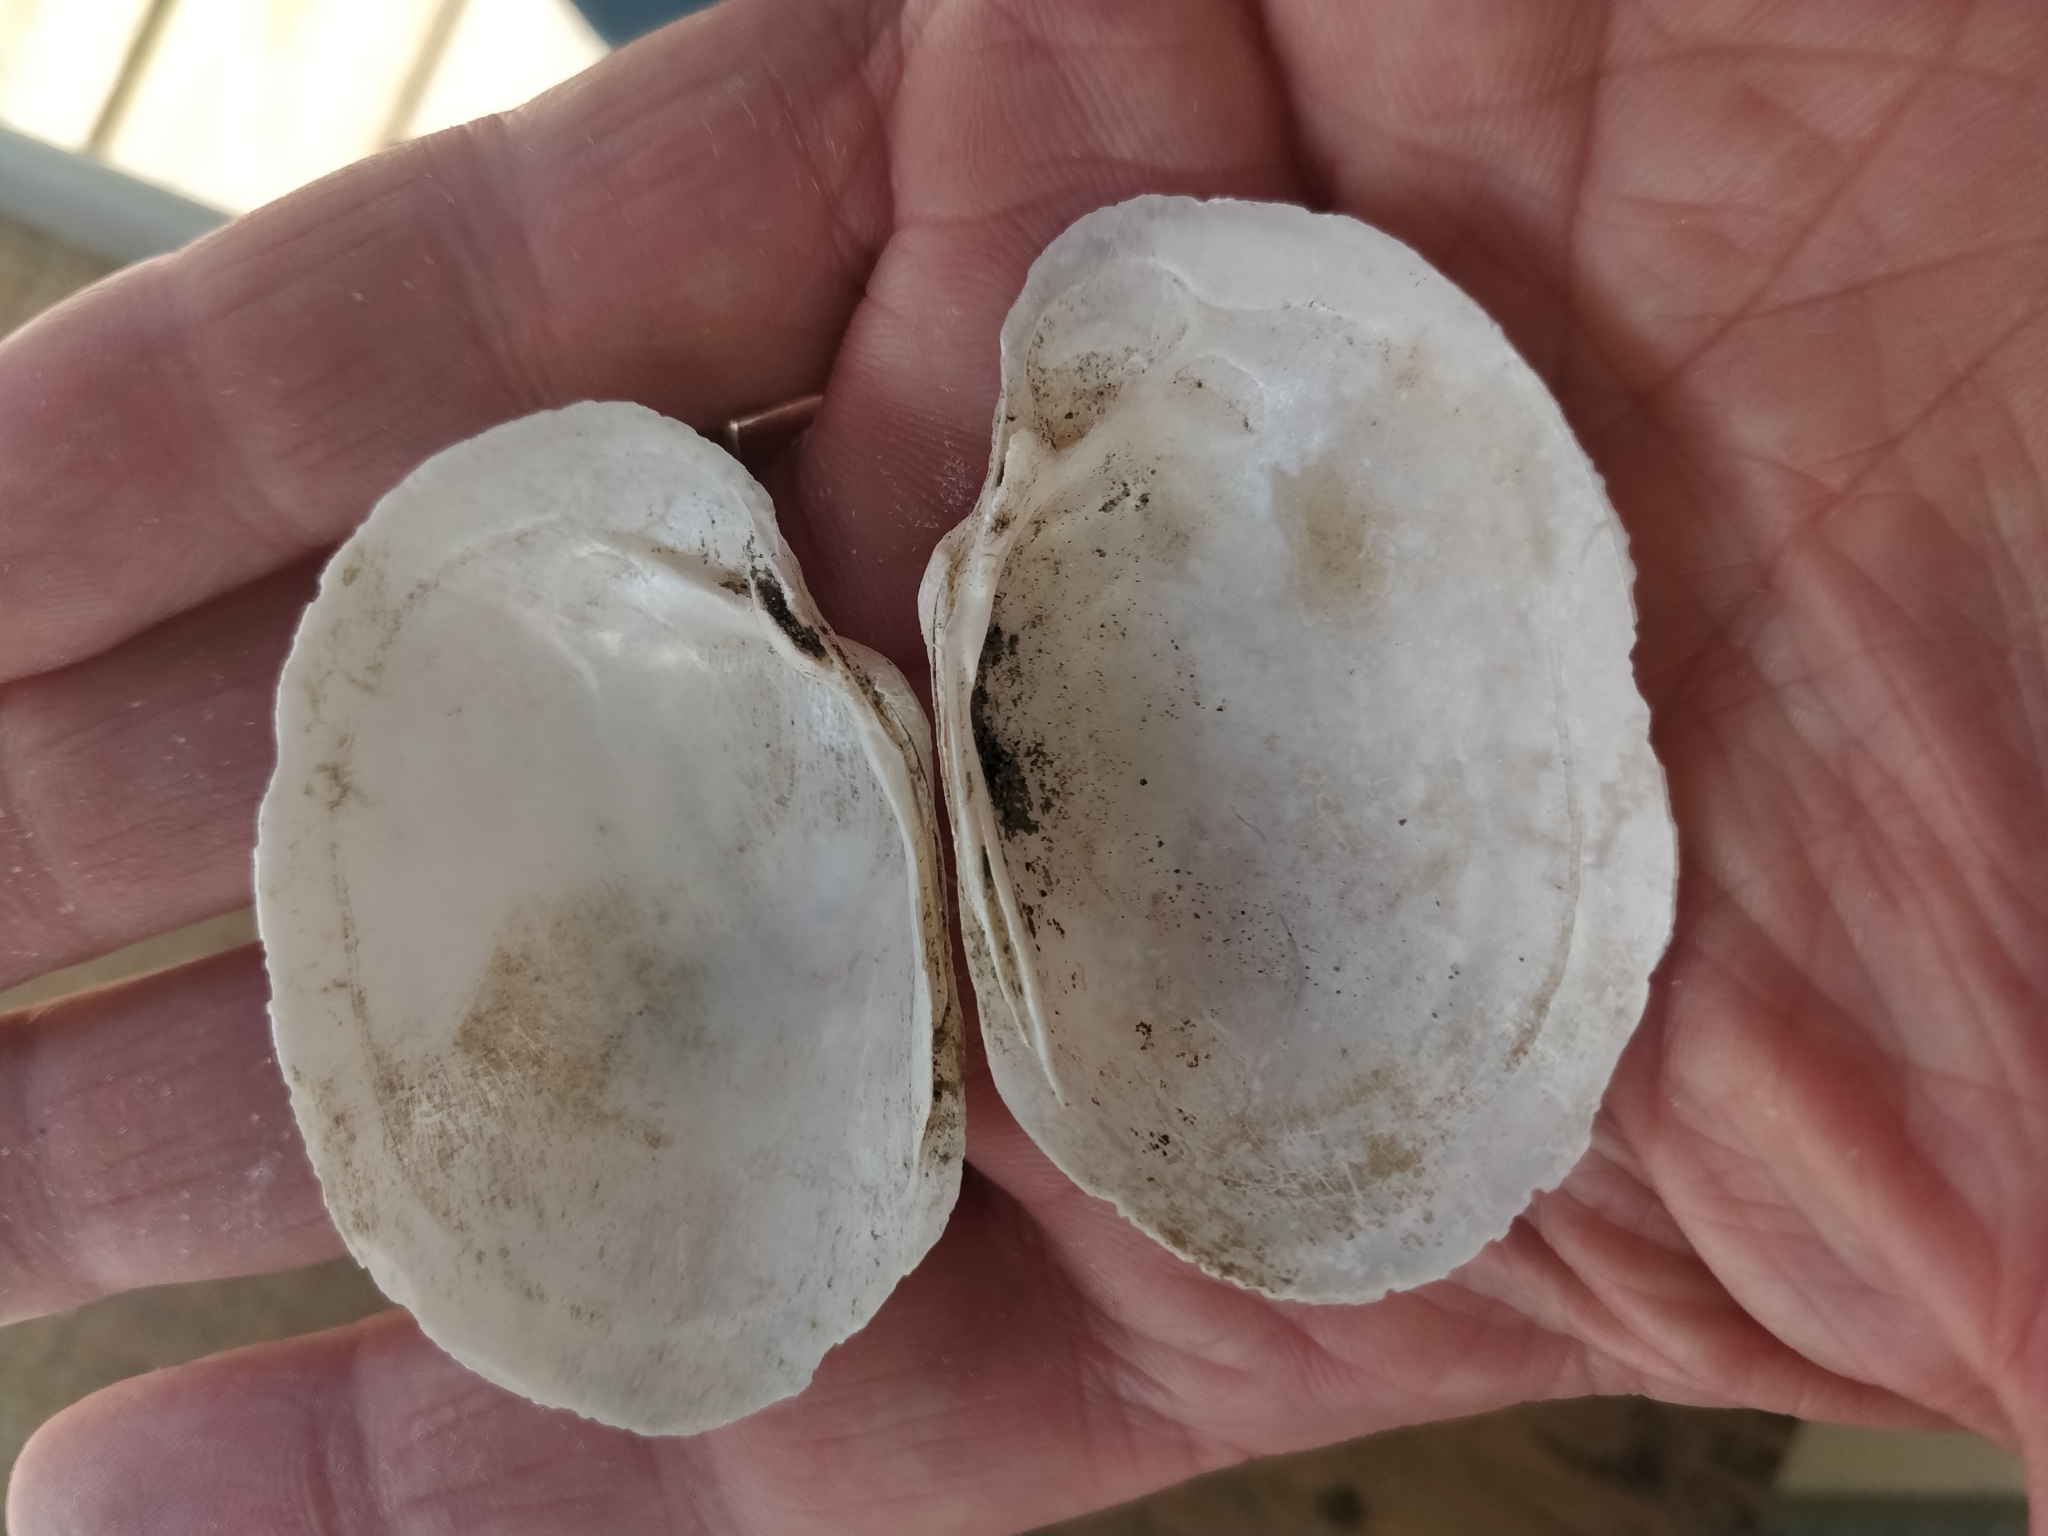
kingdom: Animalia
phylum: Mollusca
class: Bivalvia
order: Unionida
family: Unionidae
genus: Lampsilis
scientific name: Lampsilis cardium
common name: Plain pocketbook
